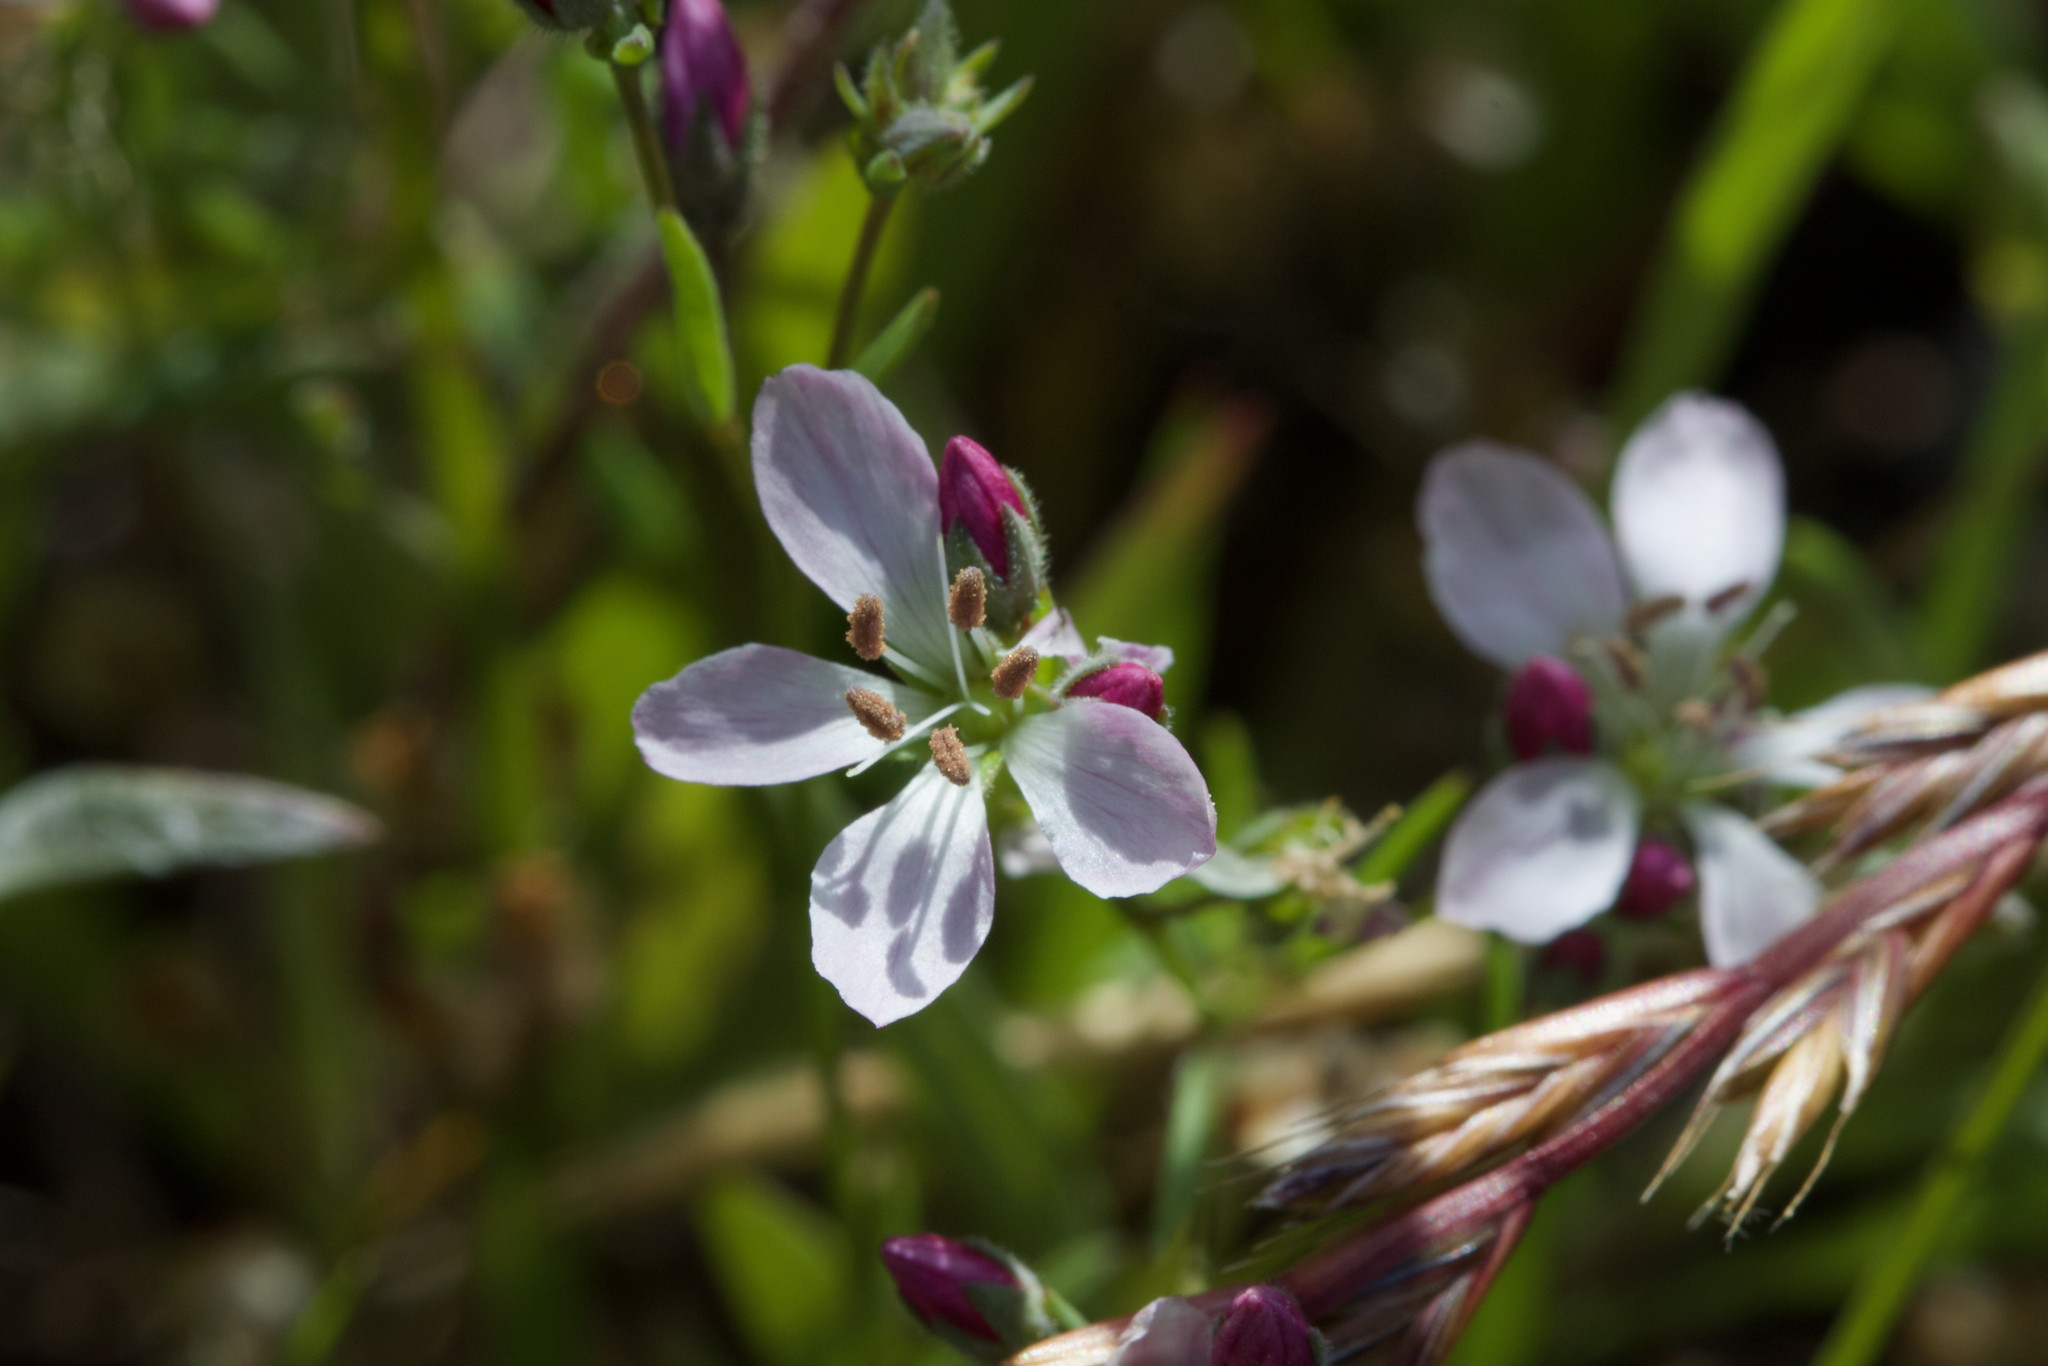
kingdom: Plantae
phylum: Tracheophyta
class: Magnoliopsida
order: Malpighiales
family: Linaceae
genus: Hesperolinon
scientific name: Hesperolinon congestum
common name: Marin dwarf-flax
